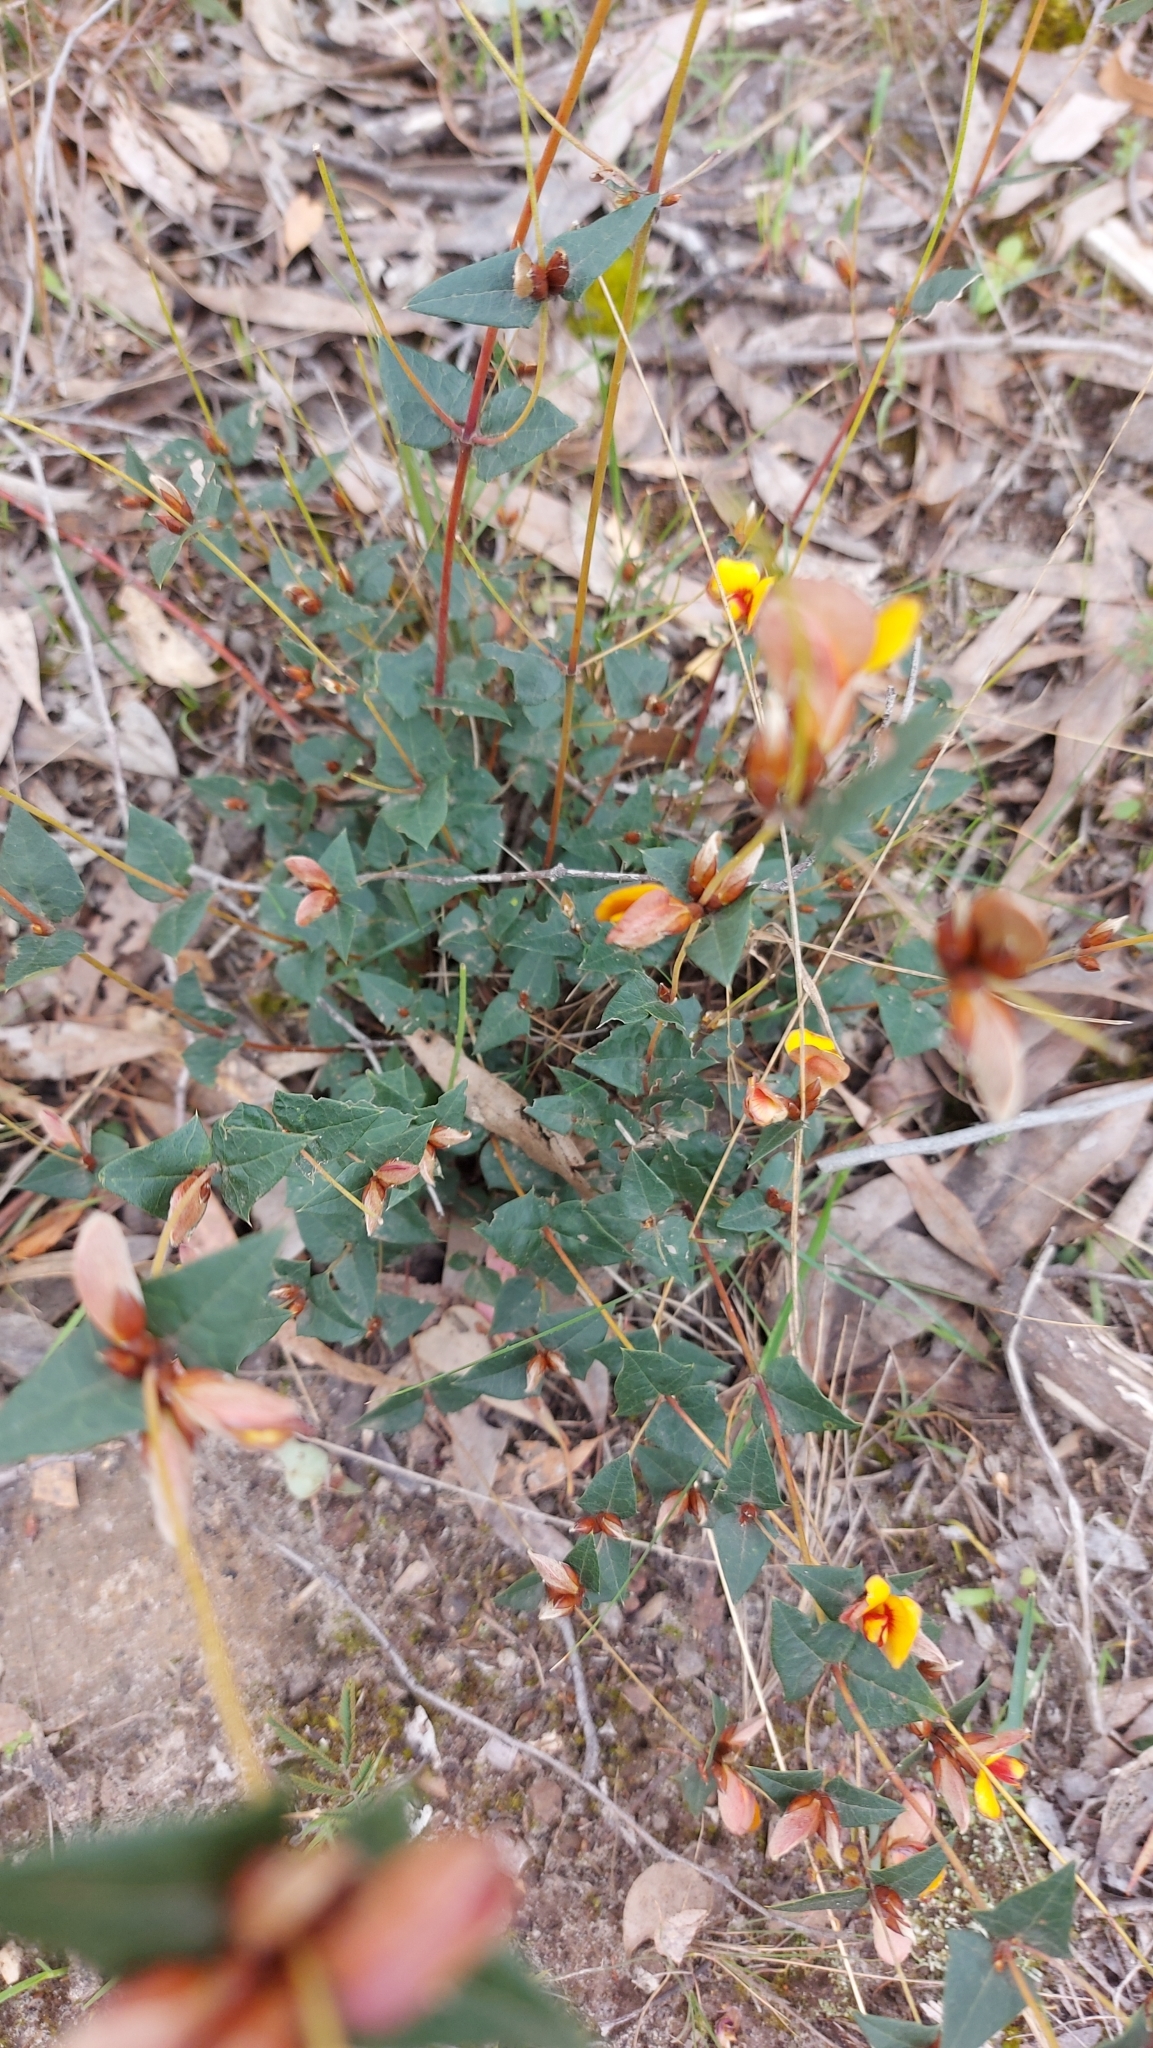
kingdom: Plantae
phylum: Tracheophyta
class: Magnoliopsida
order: Fabales
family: Fabaceae
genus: Platylobium
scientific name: Platylobium obtusangulum
